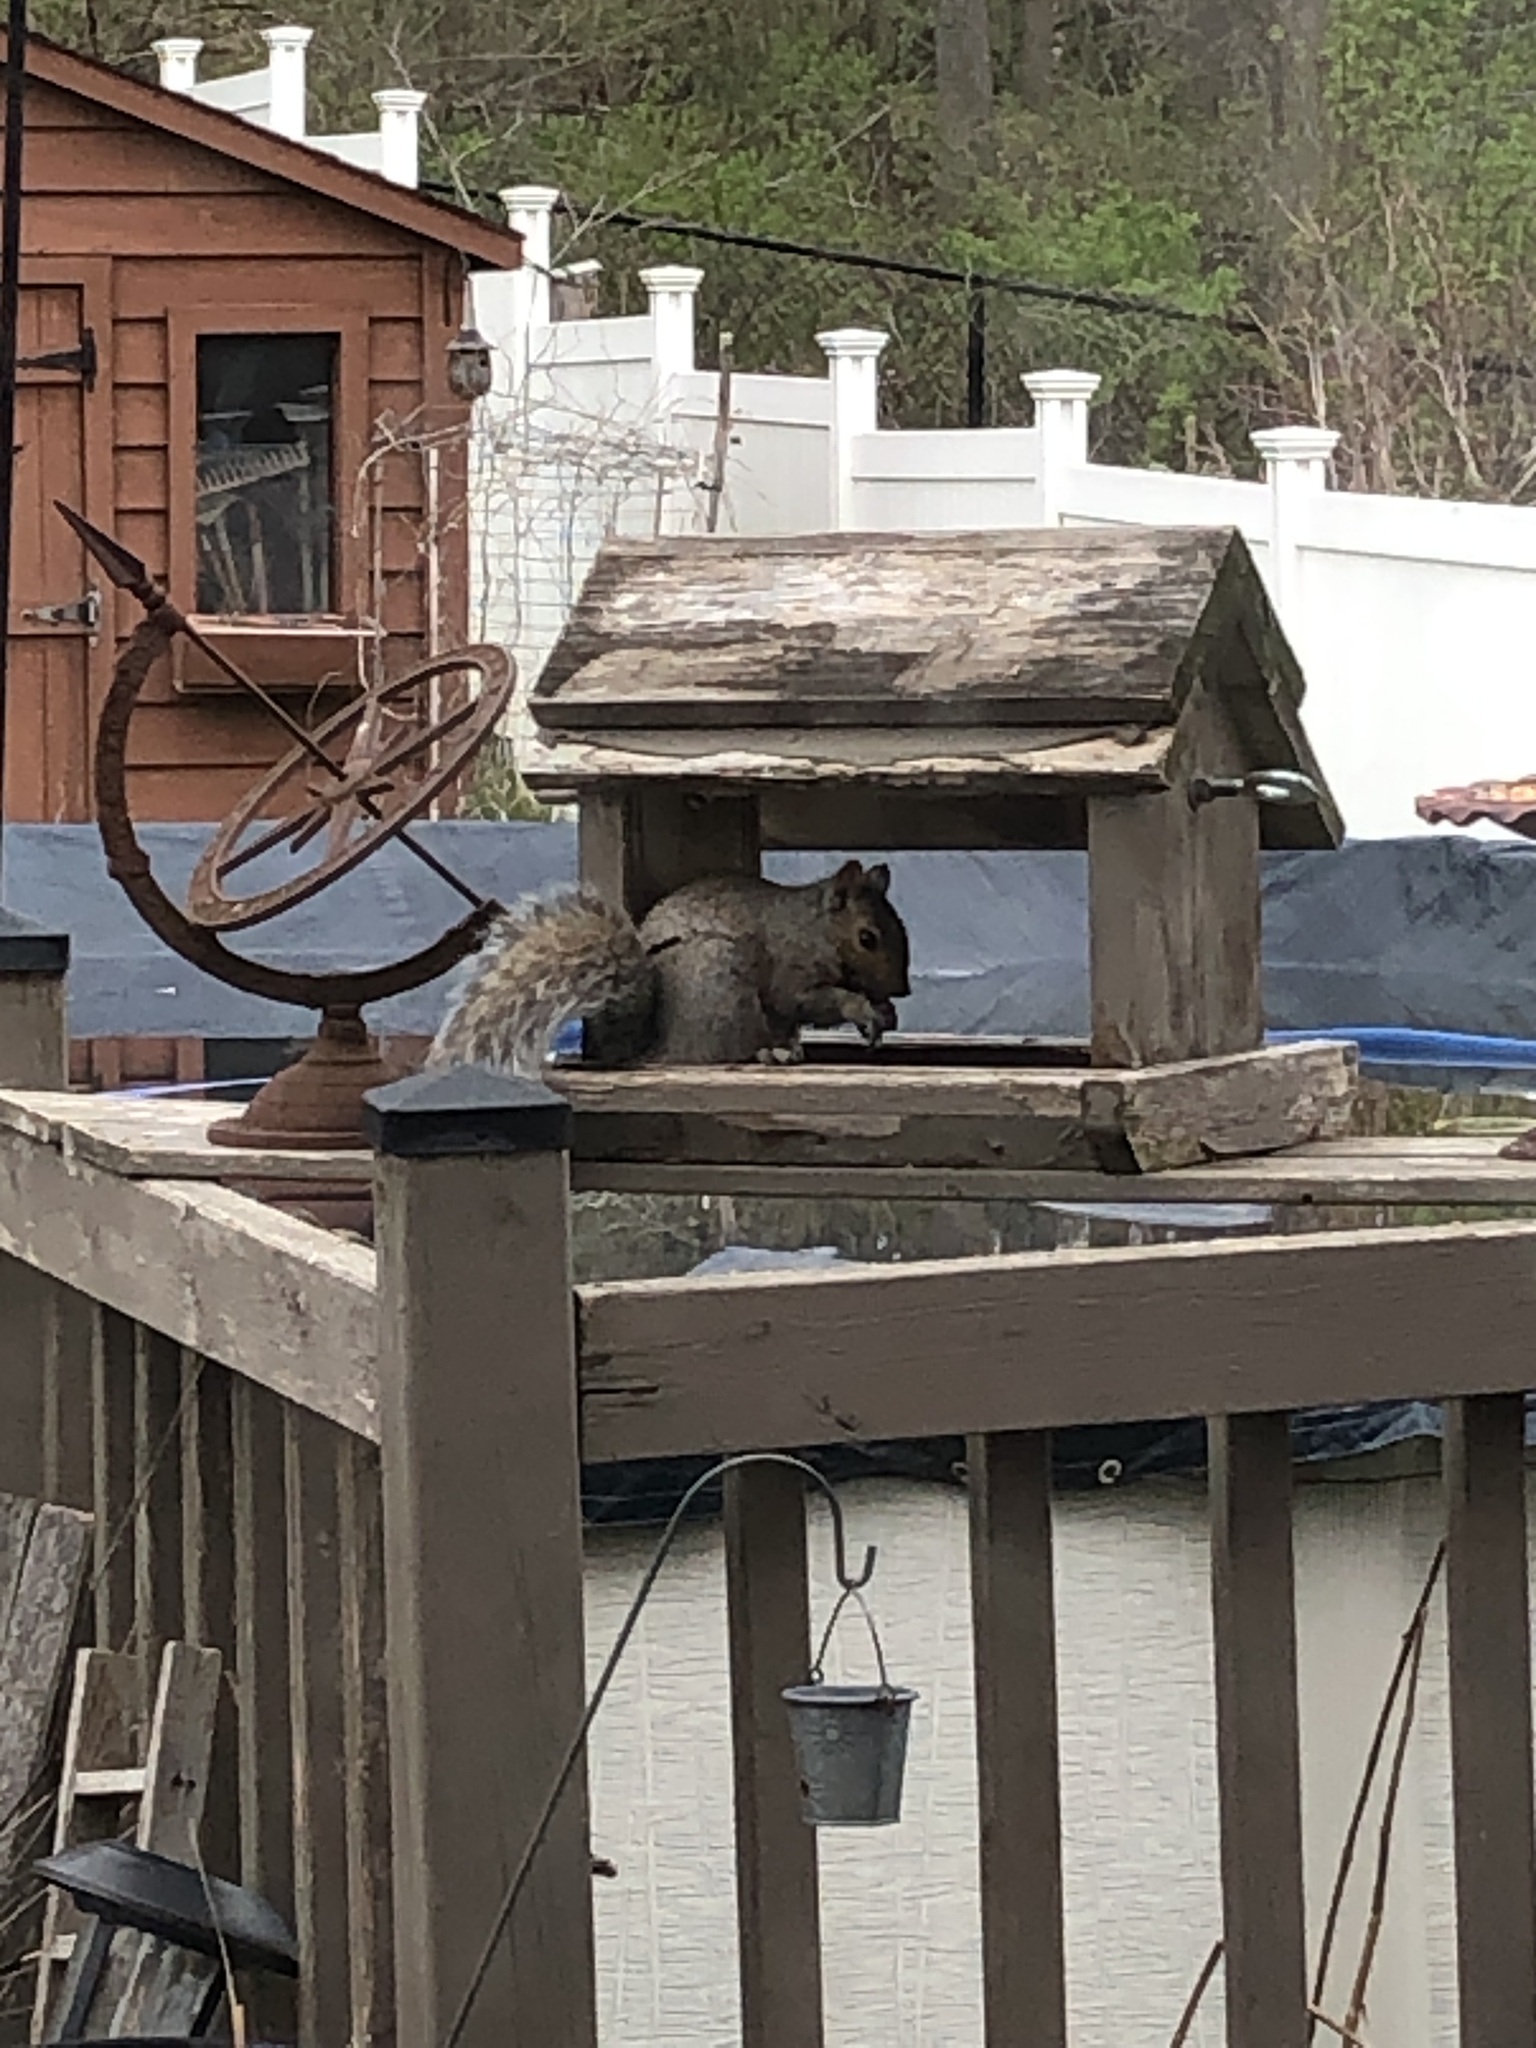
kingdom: Animalia
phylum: Chordata
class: Mammalia
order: Rodentia
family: Sciuridae
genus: Sciurus
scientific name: Sciurus carolinensis
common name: Eastern gray squirrel
